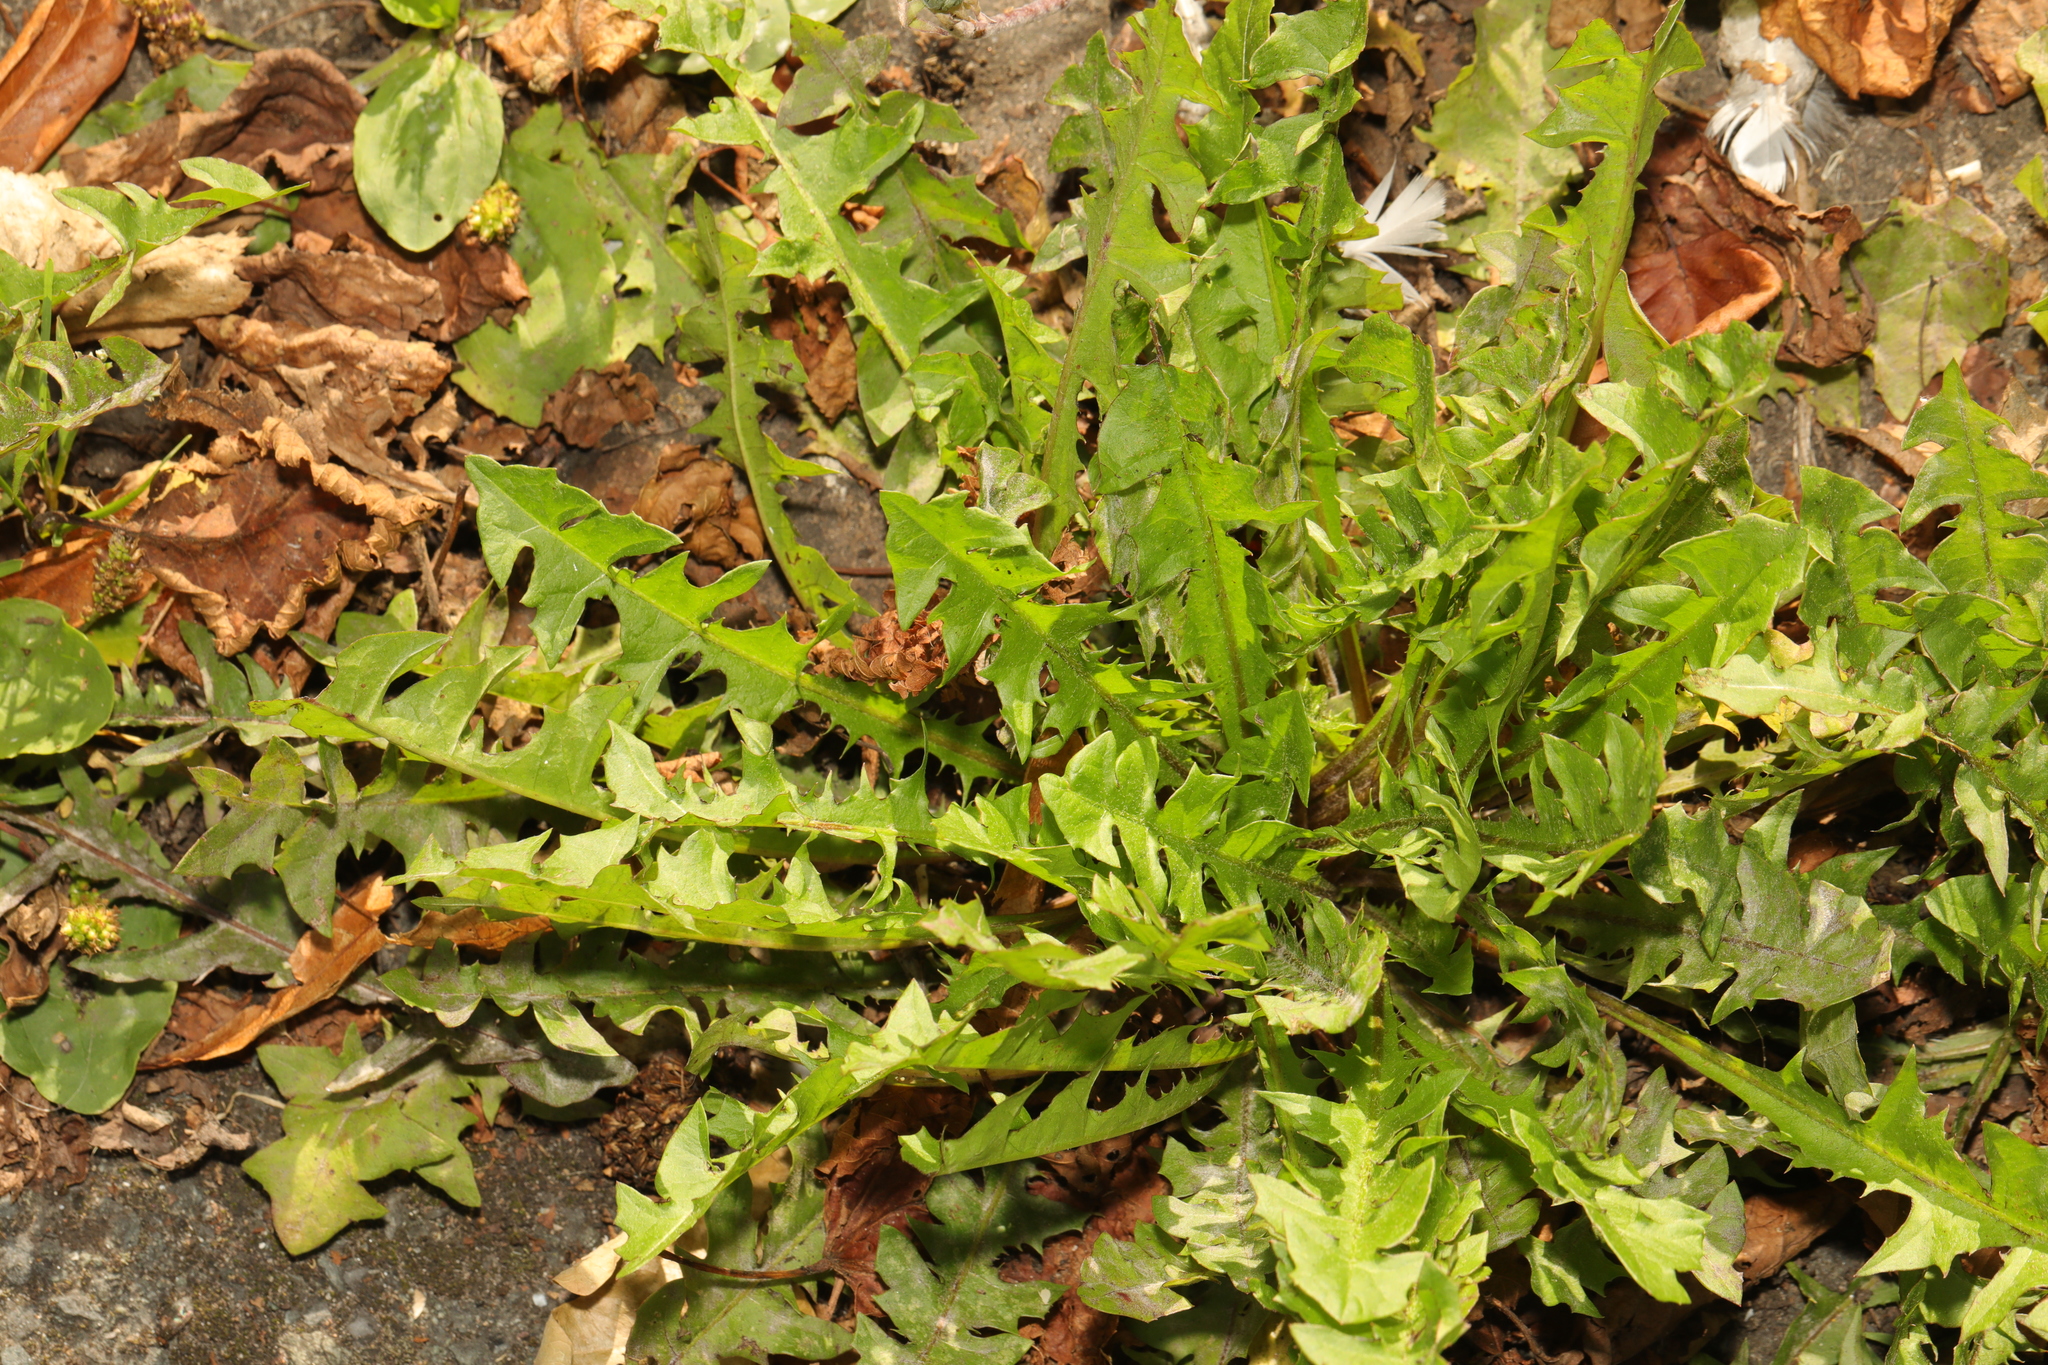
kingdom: Plantae
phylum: Tracheophyta
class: Magnoliopsida
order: Asterales
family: Asteraceae
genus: Taraxacum
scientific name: Taraxacum officinale
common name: Common dandelion
